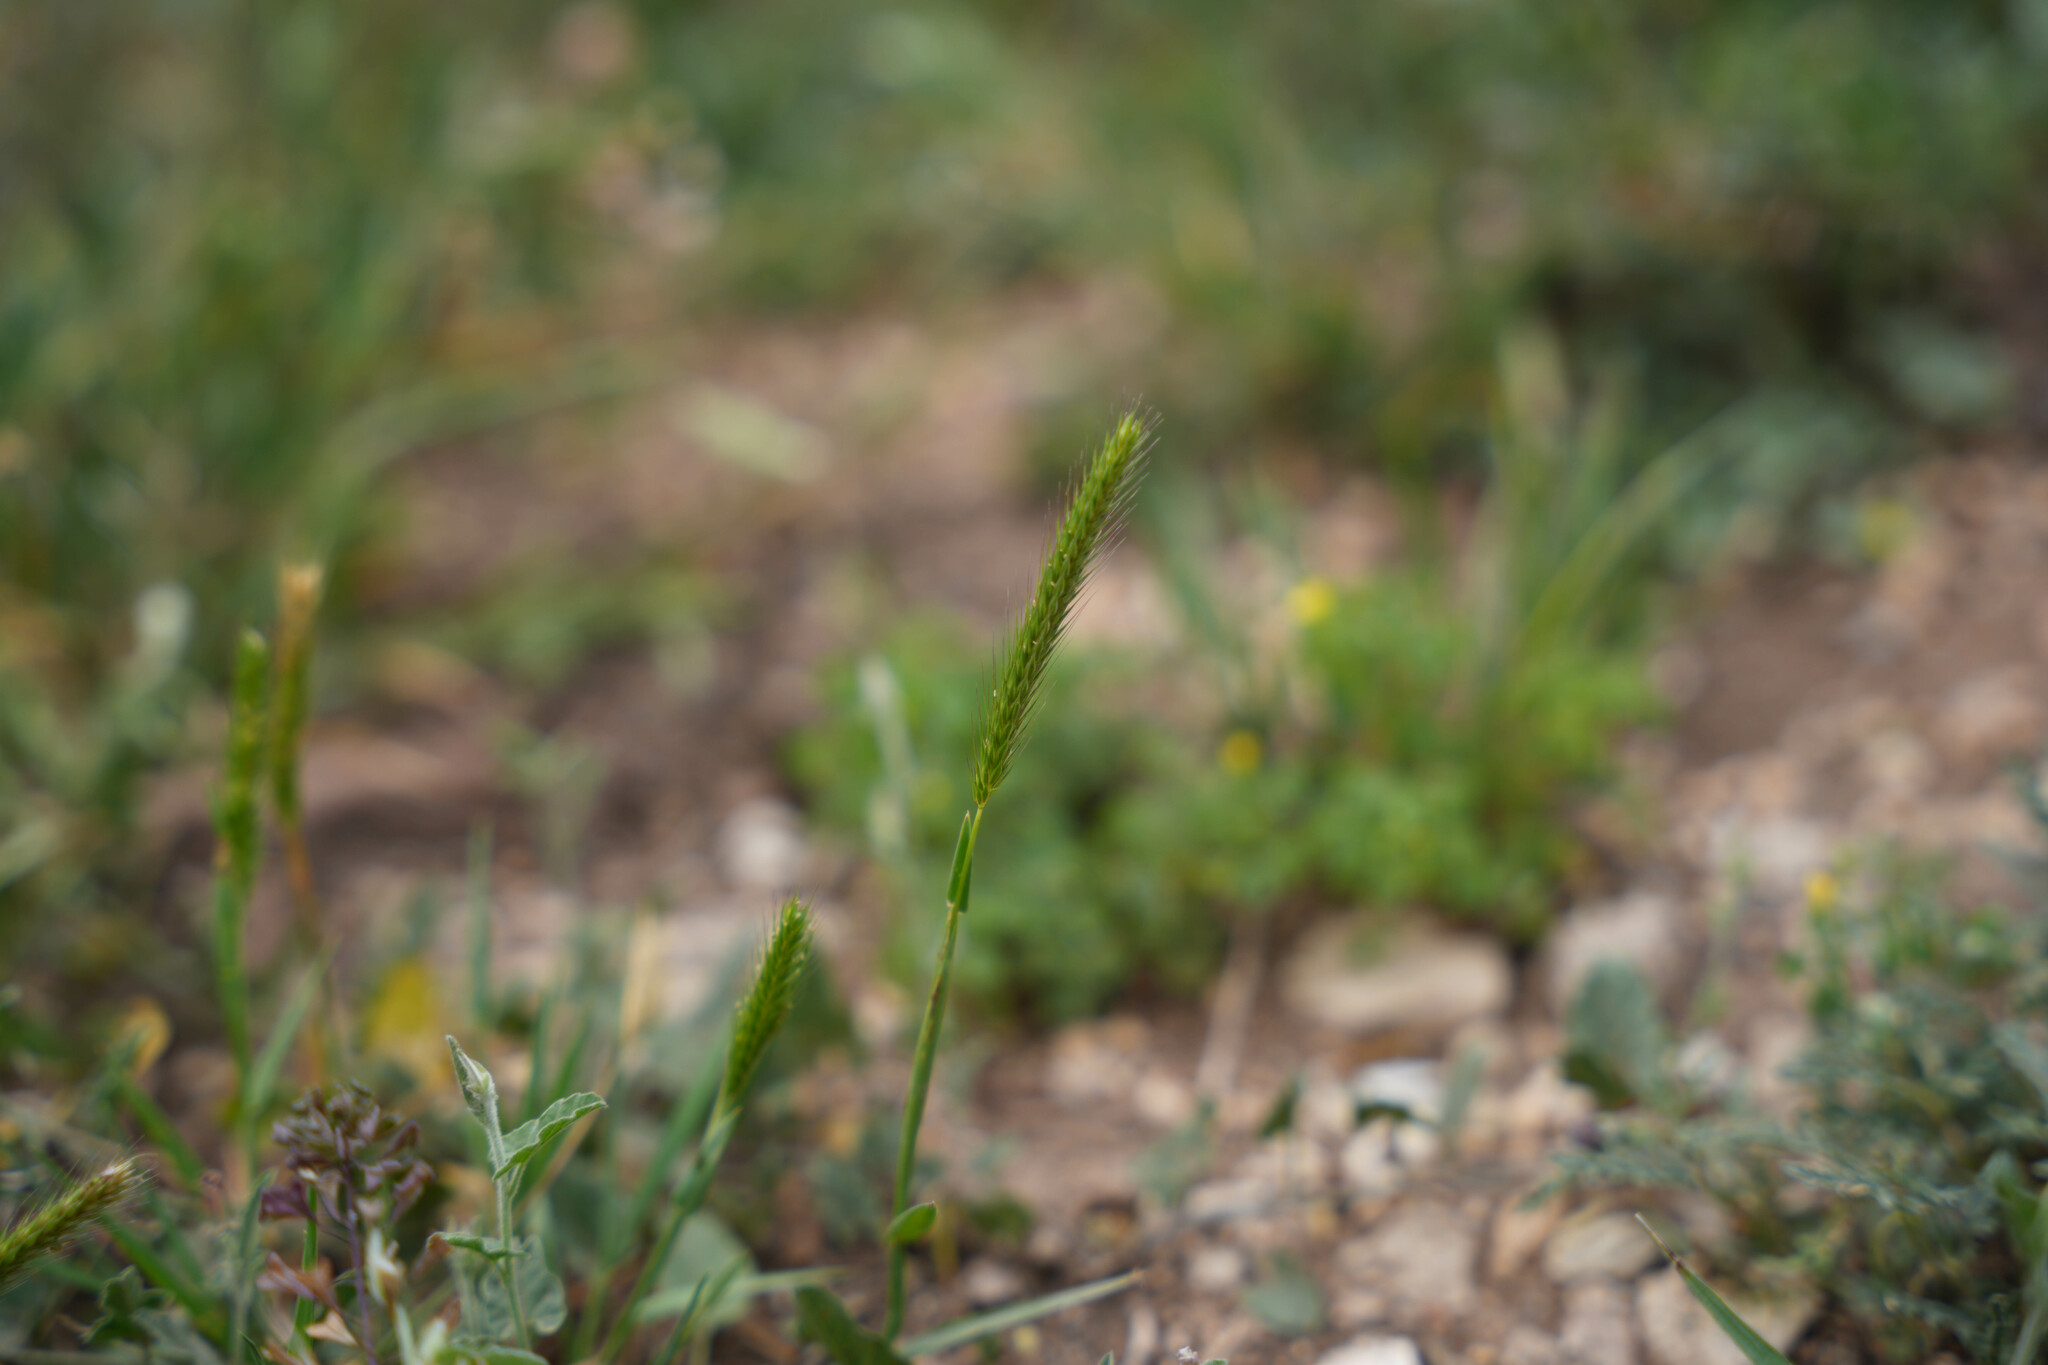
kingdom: Plantae
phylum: Tracheophyta
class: Liliopsida
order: Poales
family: Poaceae
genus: Hordeum
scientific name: Hordeum pusillum
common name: Little barley
